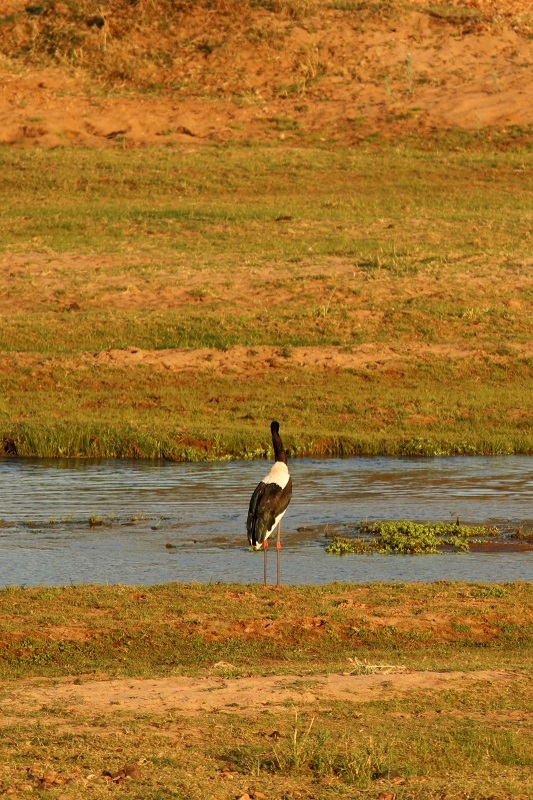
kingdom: Animalia
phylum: Chordata
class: Aves
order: Ciconiiformes
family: Ciconiidae
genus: Ephippiorhynchus
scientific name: Ephippiorhynchus senegalensis
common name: Saddle-billed stork
